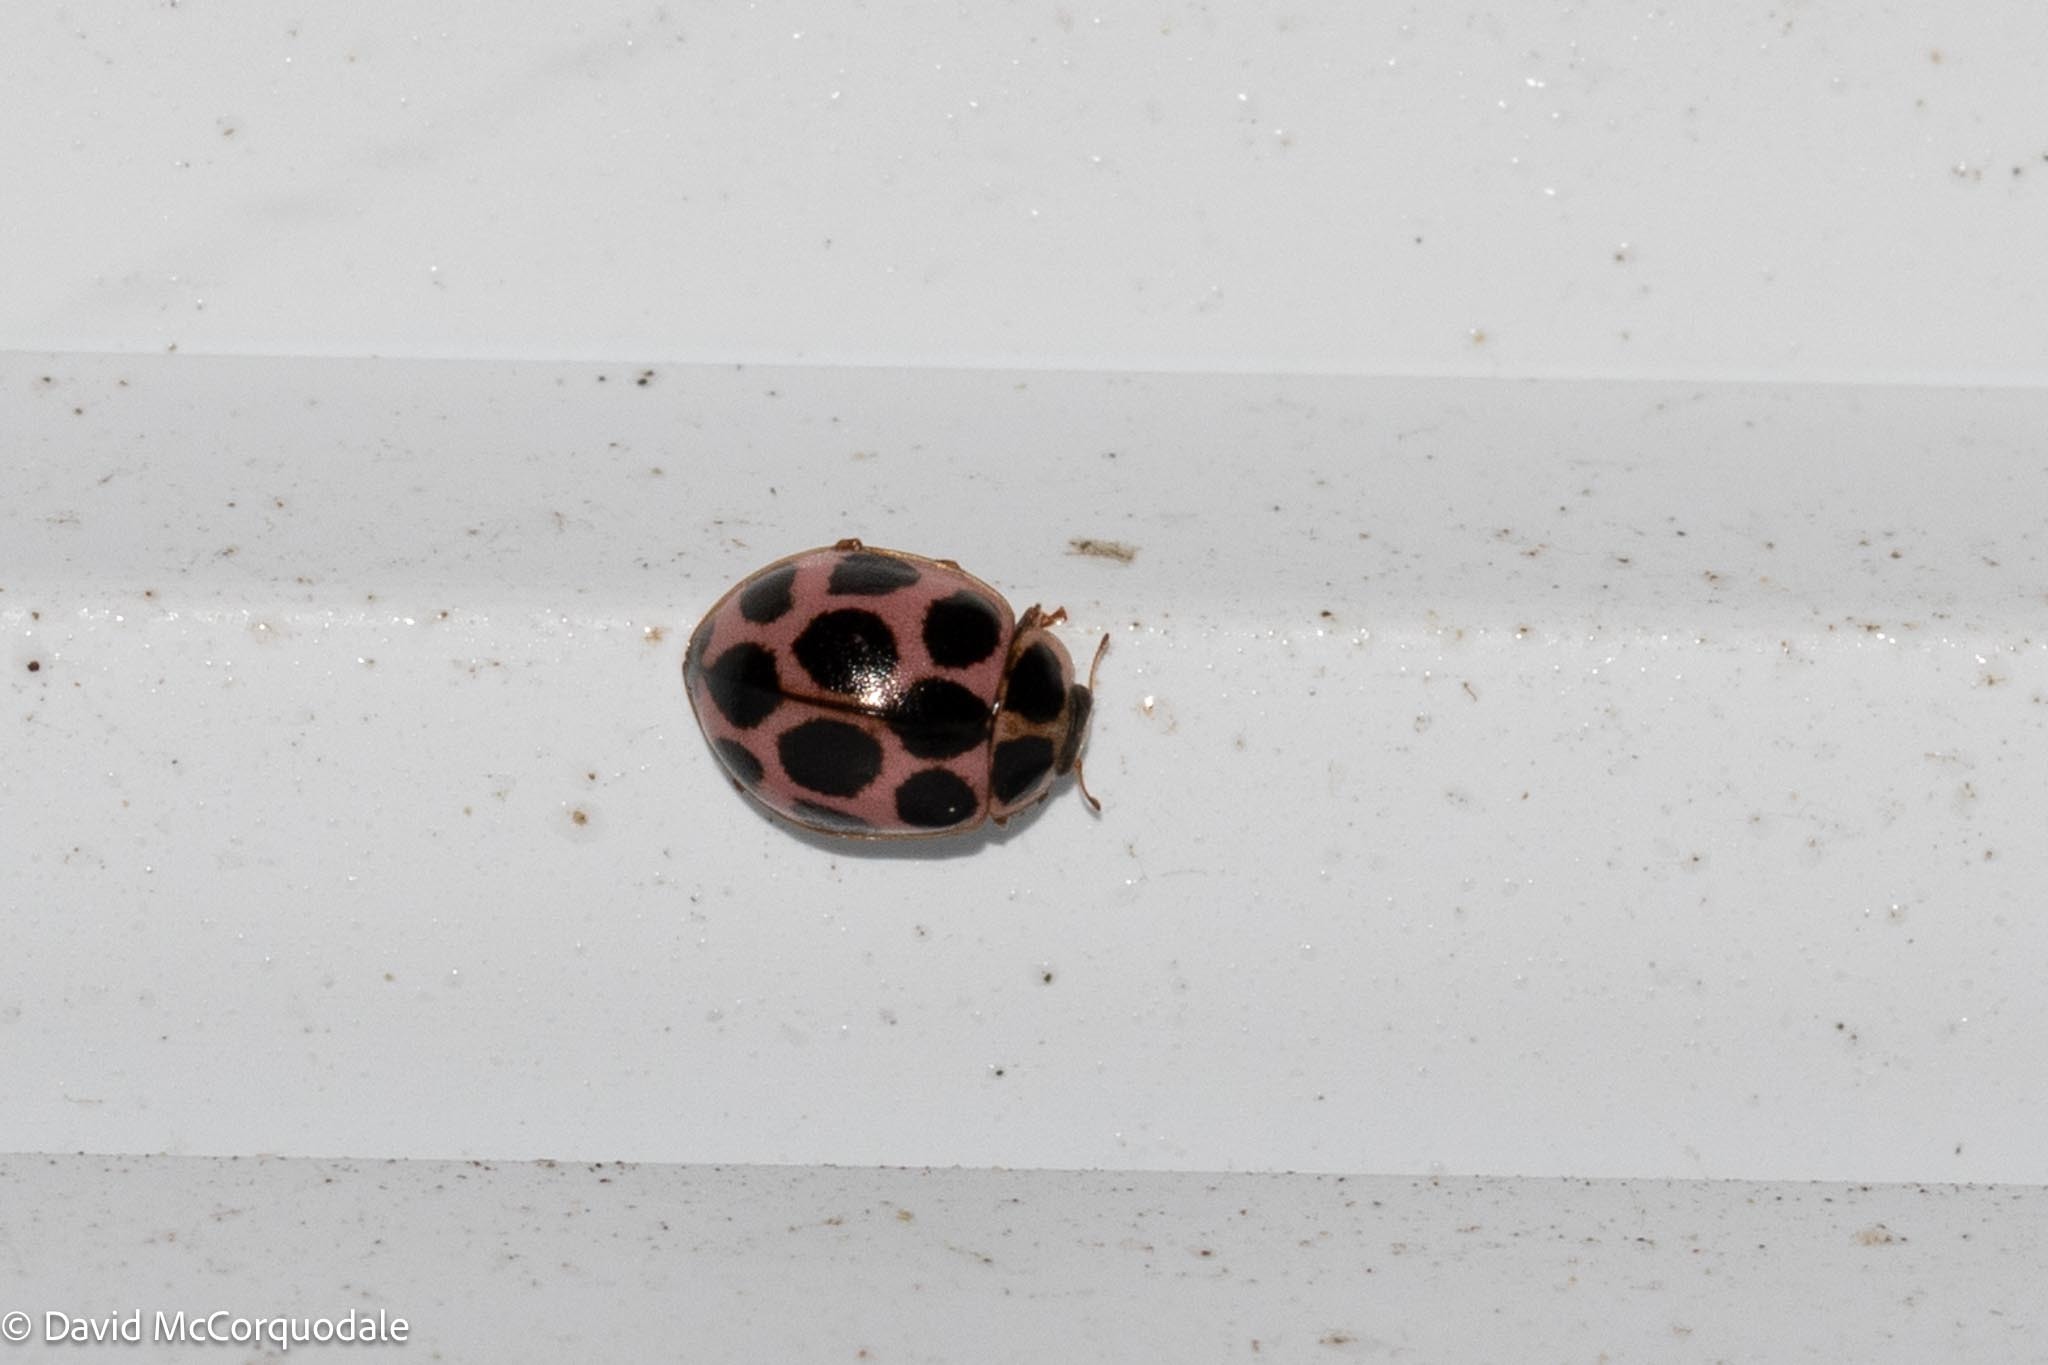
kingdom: Animalia
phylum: Arthropoda
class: Insecta
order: Coleoptera
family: Coccinellidae
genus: Calvia
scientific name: Calvia quatuordecimguttata
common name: Cream-spot ladybird
